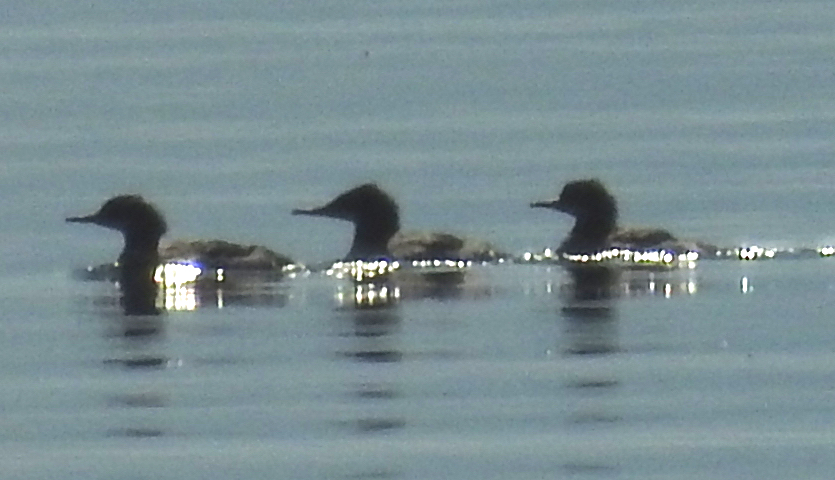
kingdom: Animalia
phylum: Chordata
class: Aves
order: Anseriformes
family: Anatidae
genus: Mergus
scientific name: Mergus merganser
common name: Common merganser
